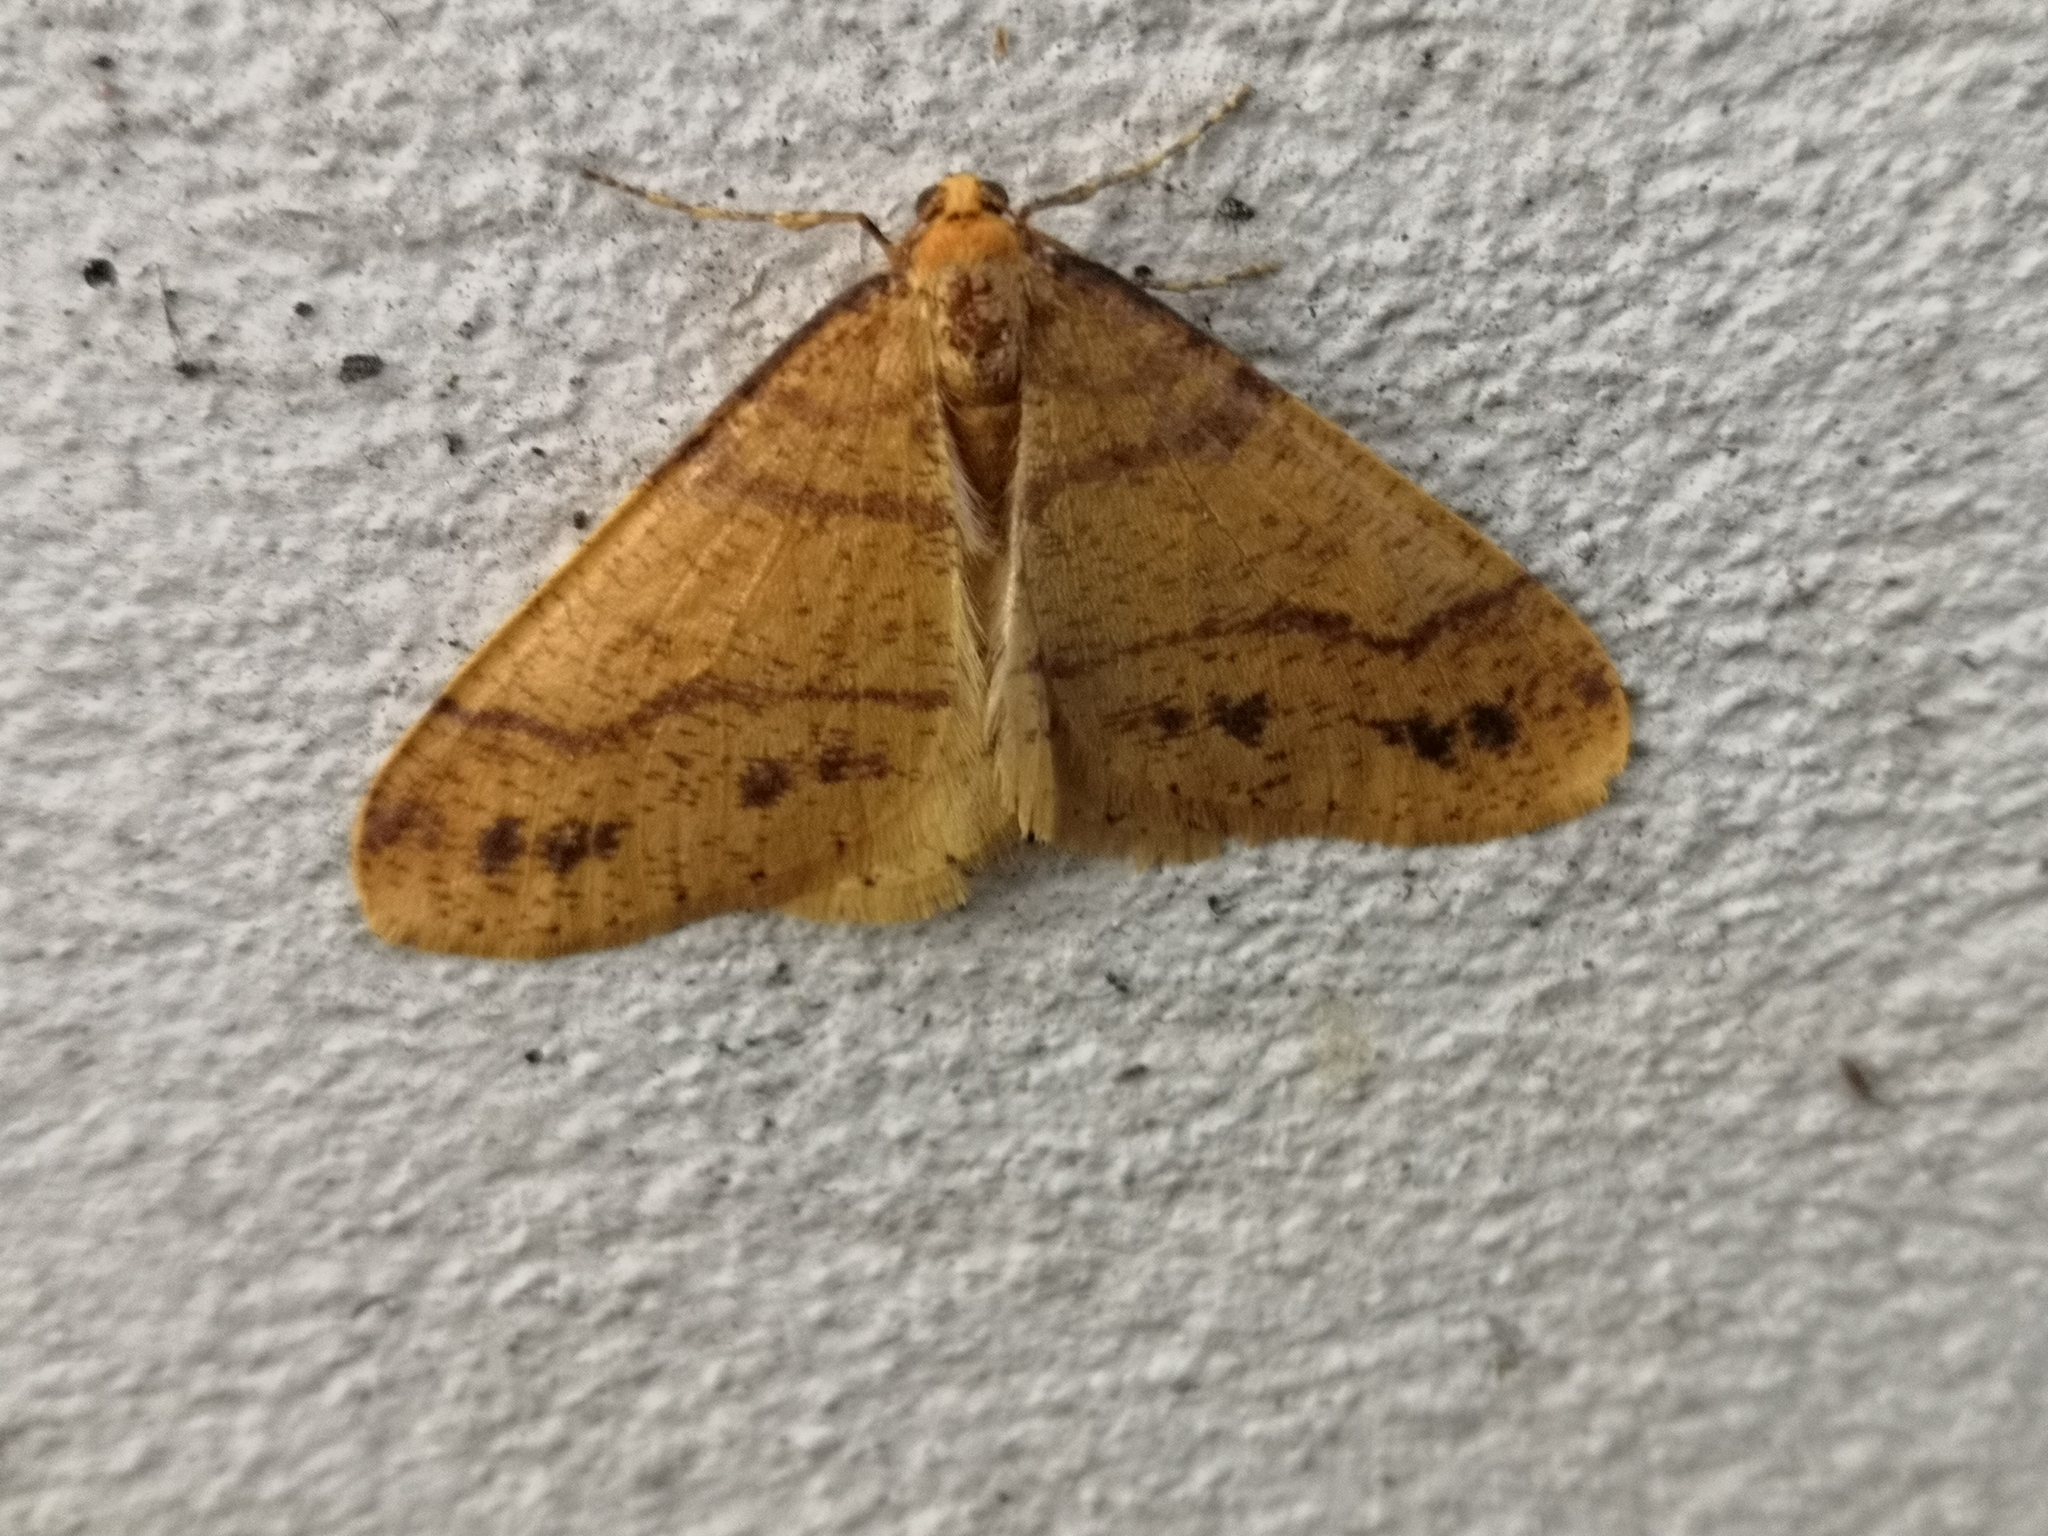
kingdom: Animalia
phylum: Arthropoda
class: Insecta
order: Lepidoptera
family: Geometridae
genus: Agriopis
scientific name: Agriopis aurantiaria
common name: Scarce umber
